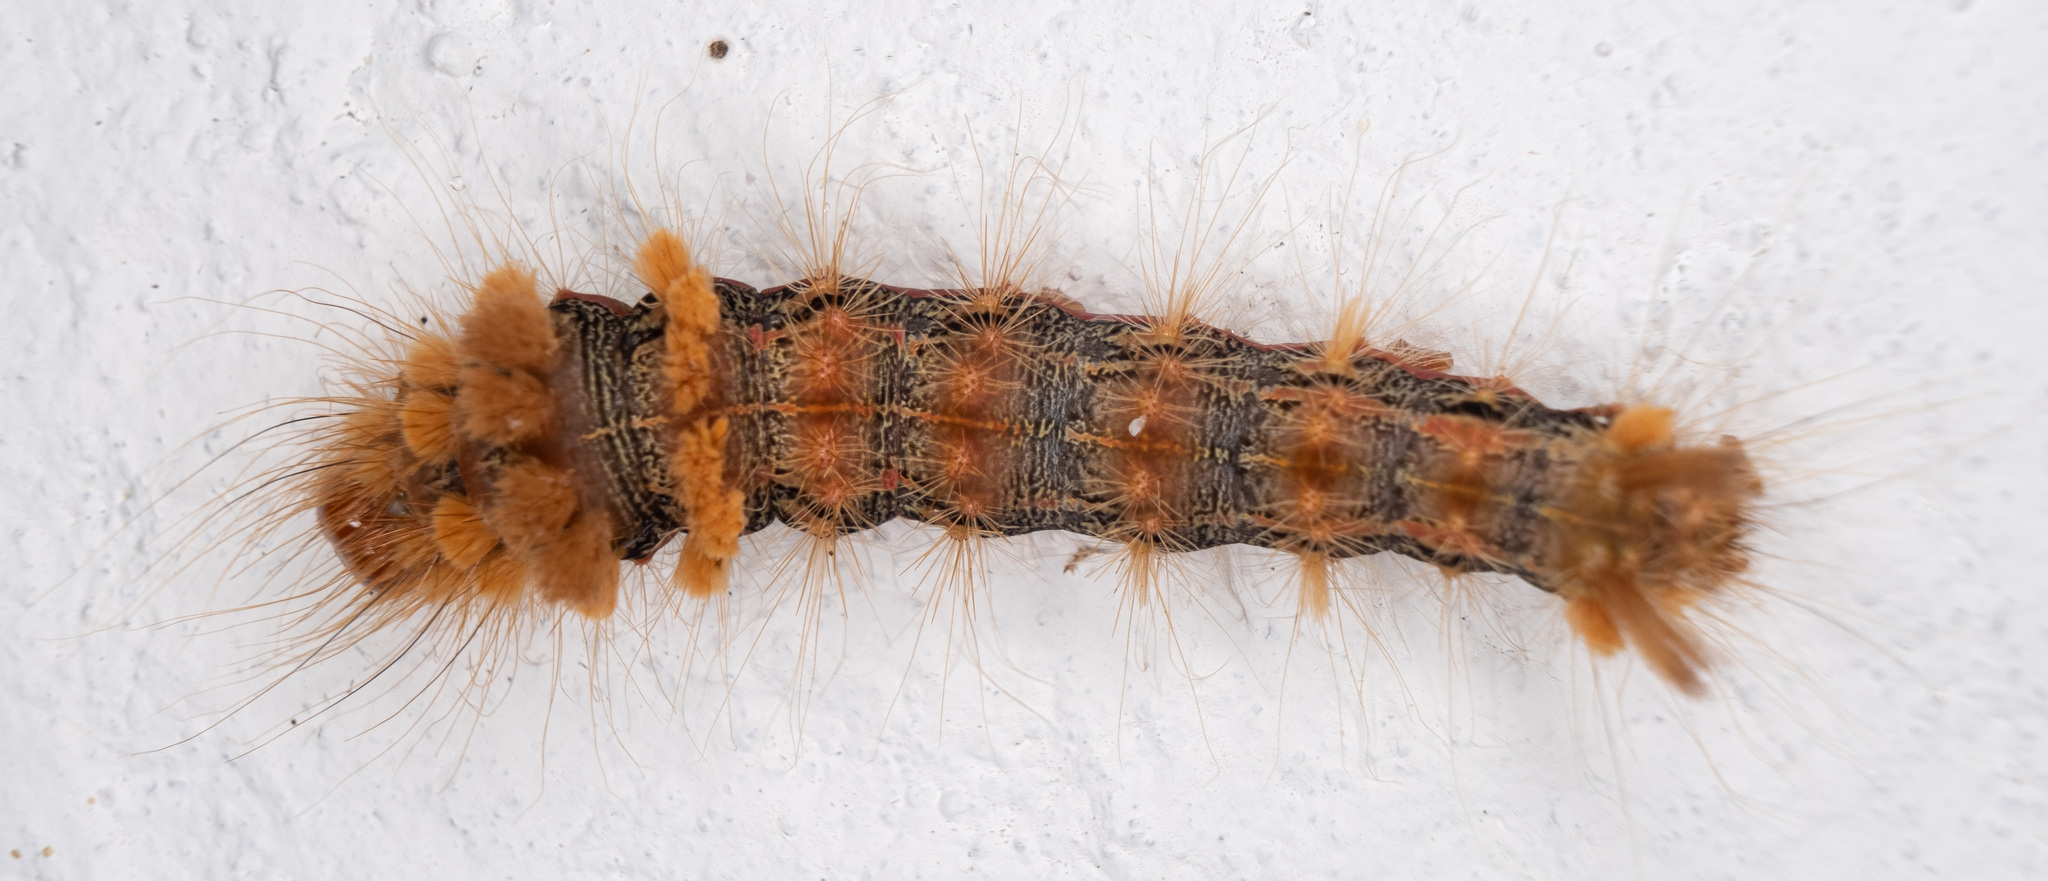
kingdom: Animalia
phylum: Arthropoda
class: Insecta
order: Lepidoptera
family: Noctuidae
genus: Acronicta
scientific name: Acronicta impleta
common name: Powdered dagger
